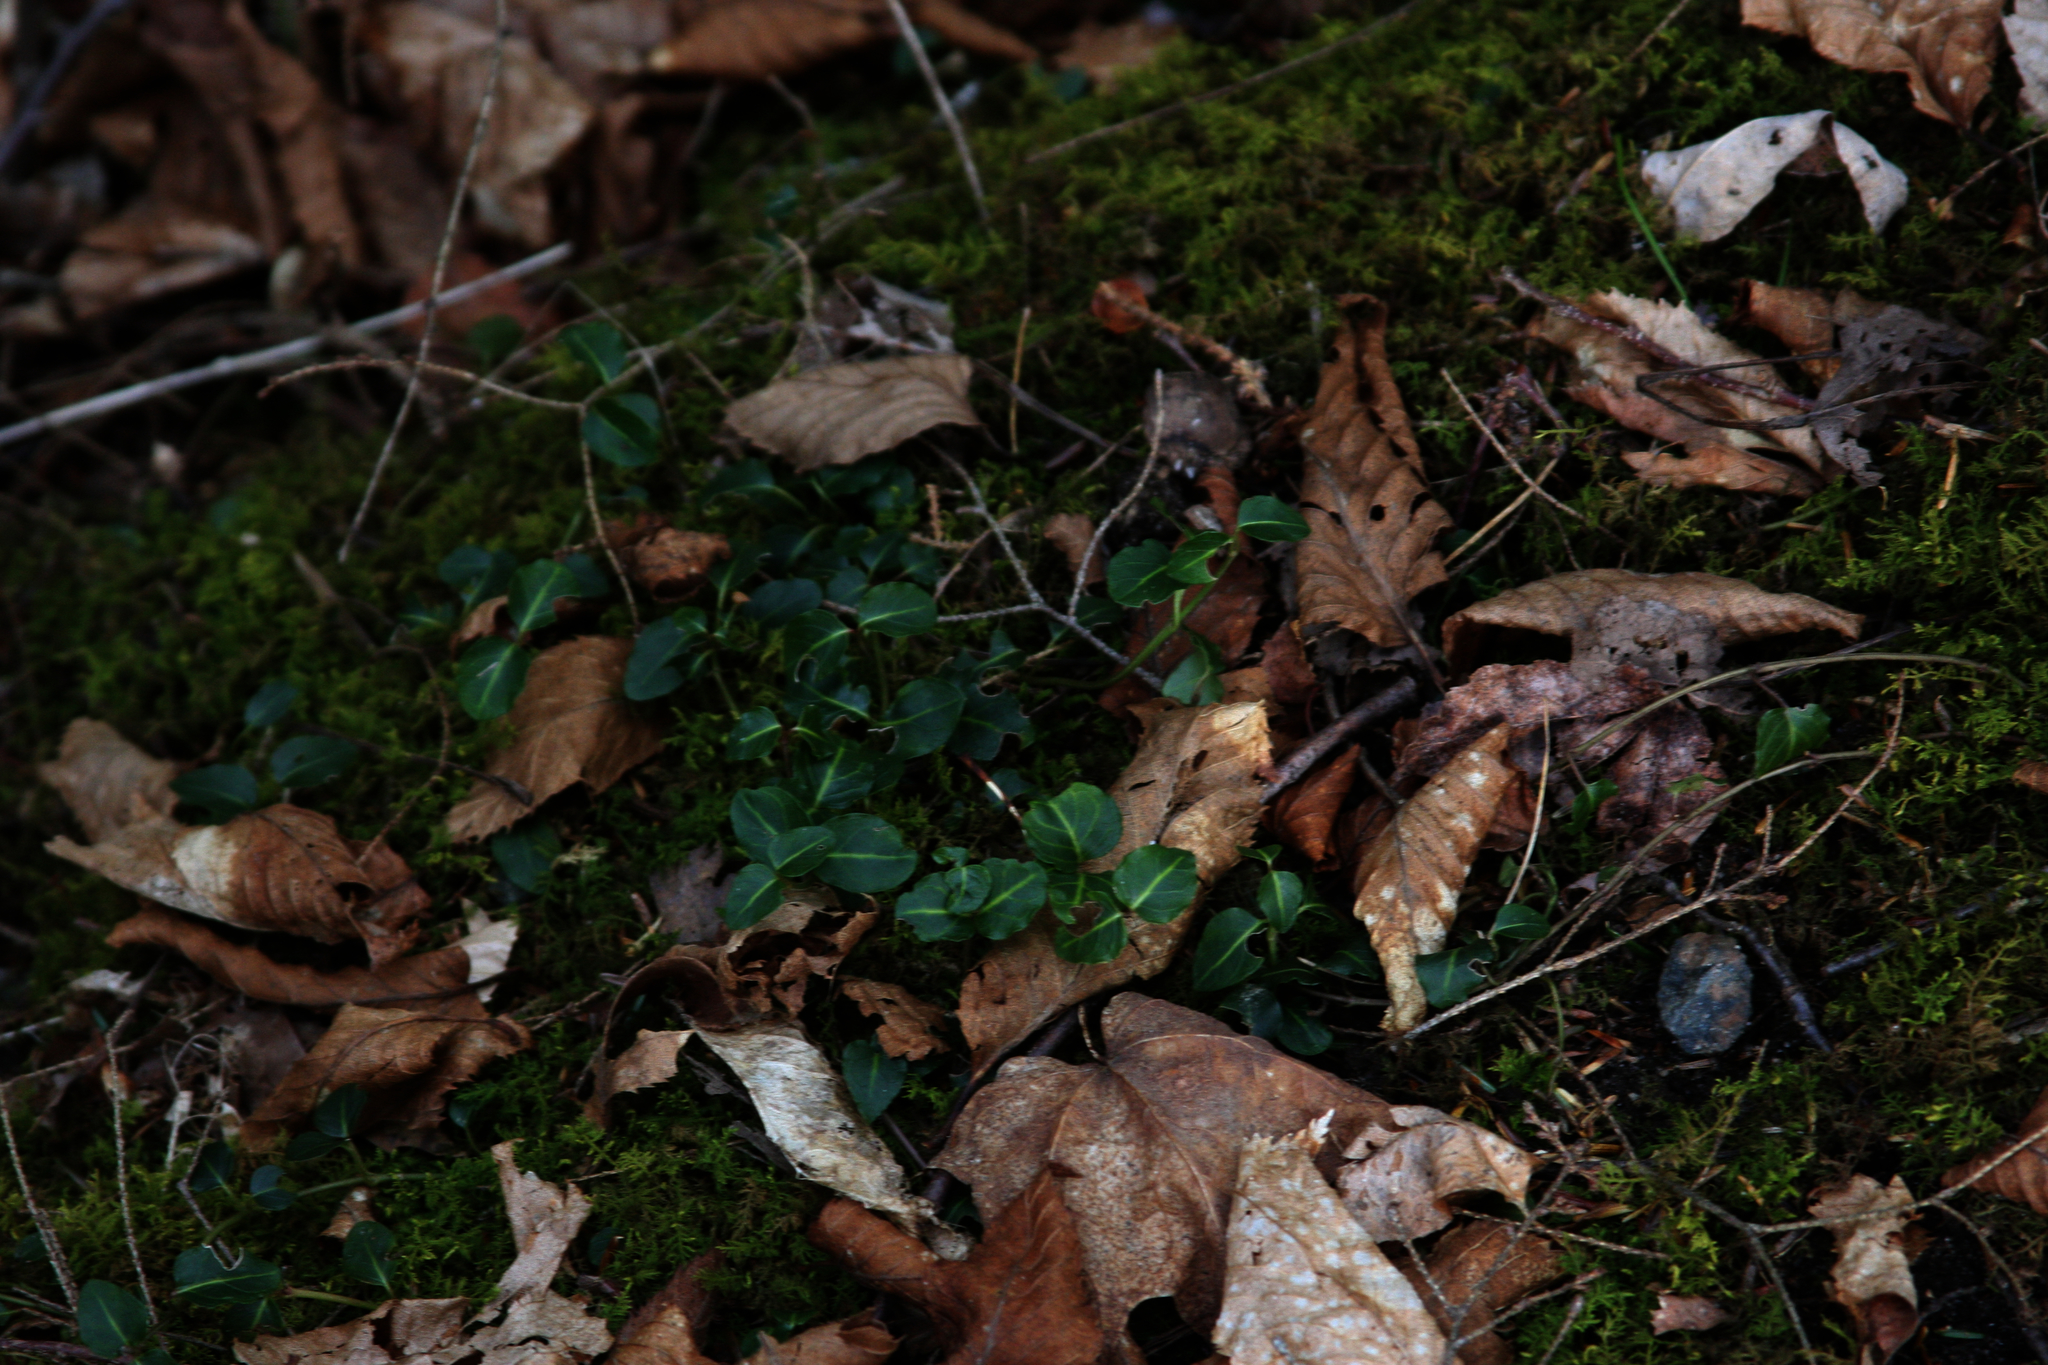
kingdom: Plantae
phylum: Tracheophyta
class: Magnoliopsida
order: Gentianales
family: Rubiaceae
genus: Mitchella
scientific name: Mitchella repens
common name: Partridge-berry
